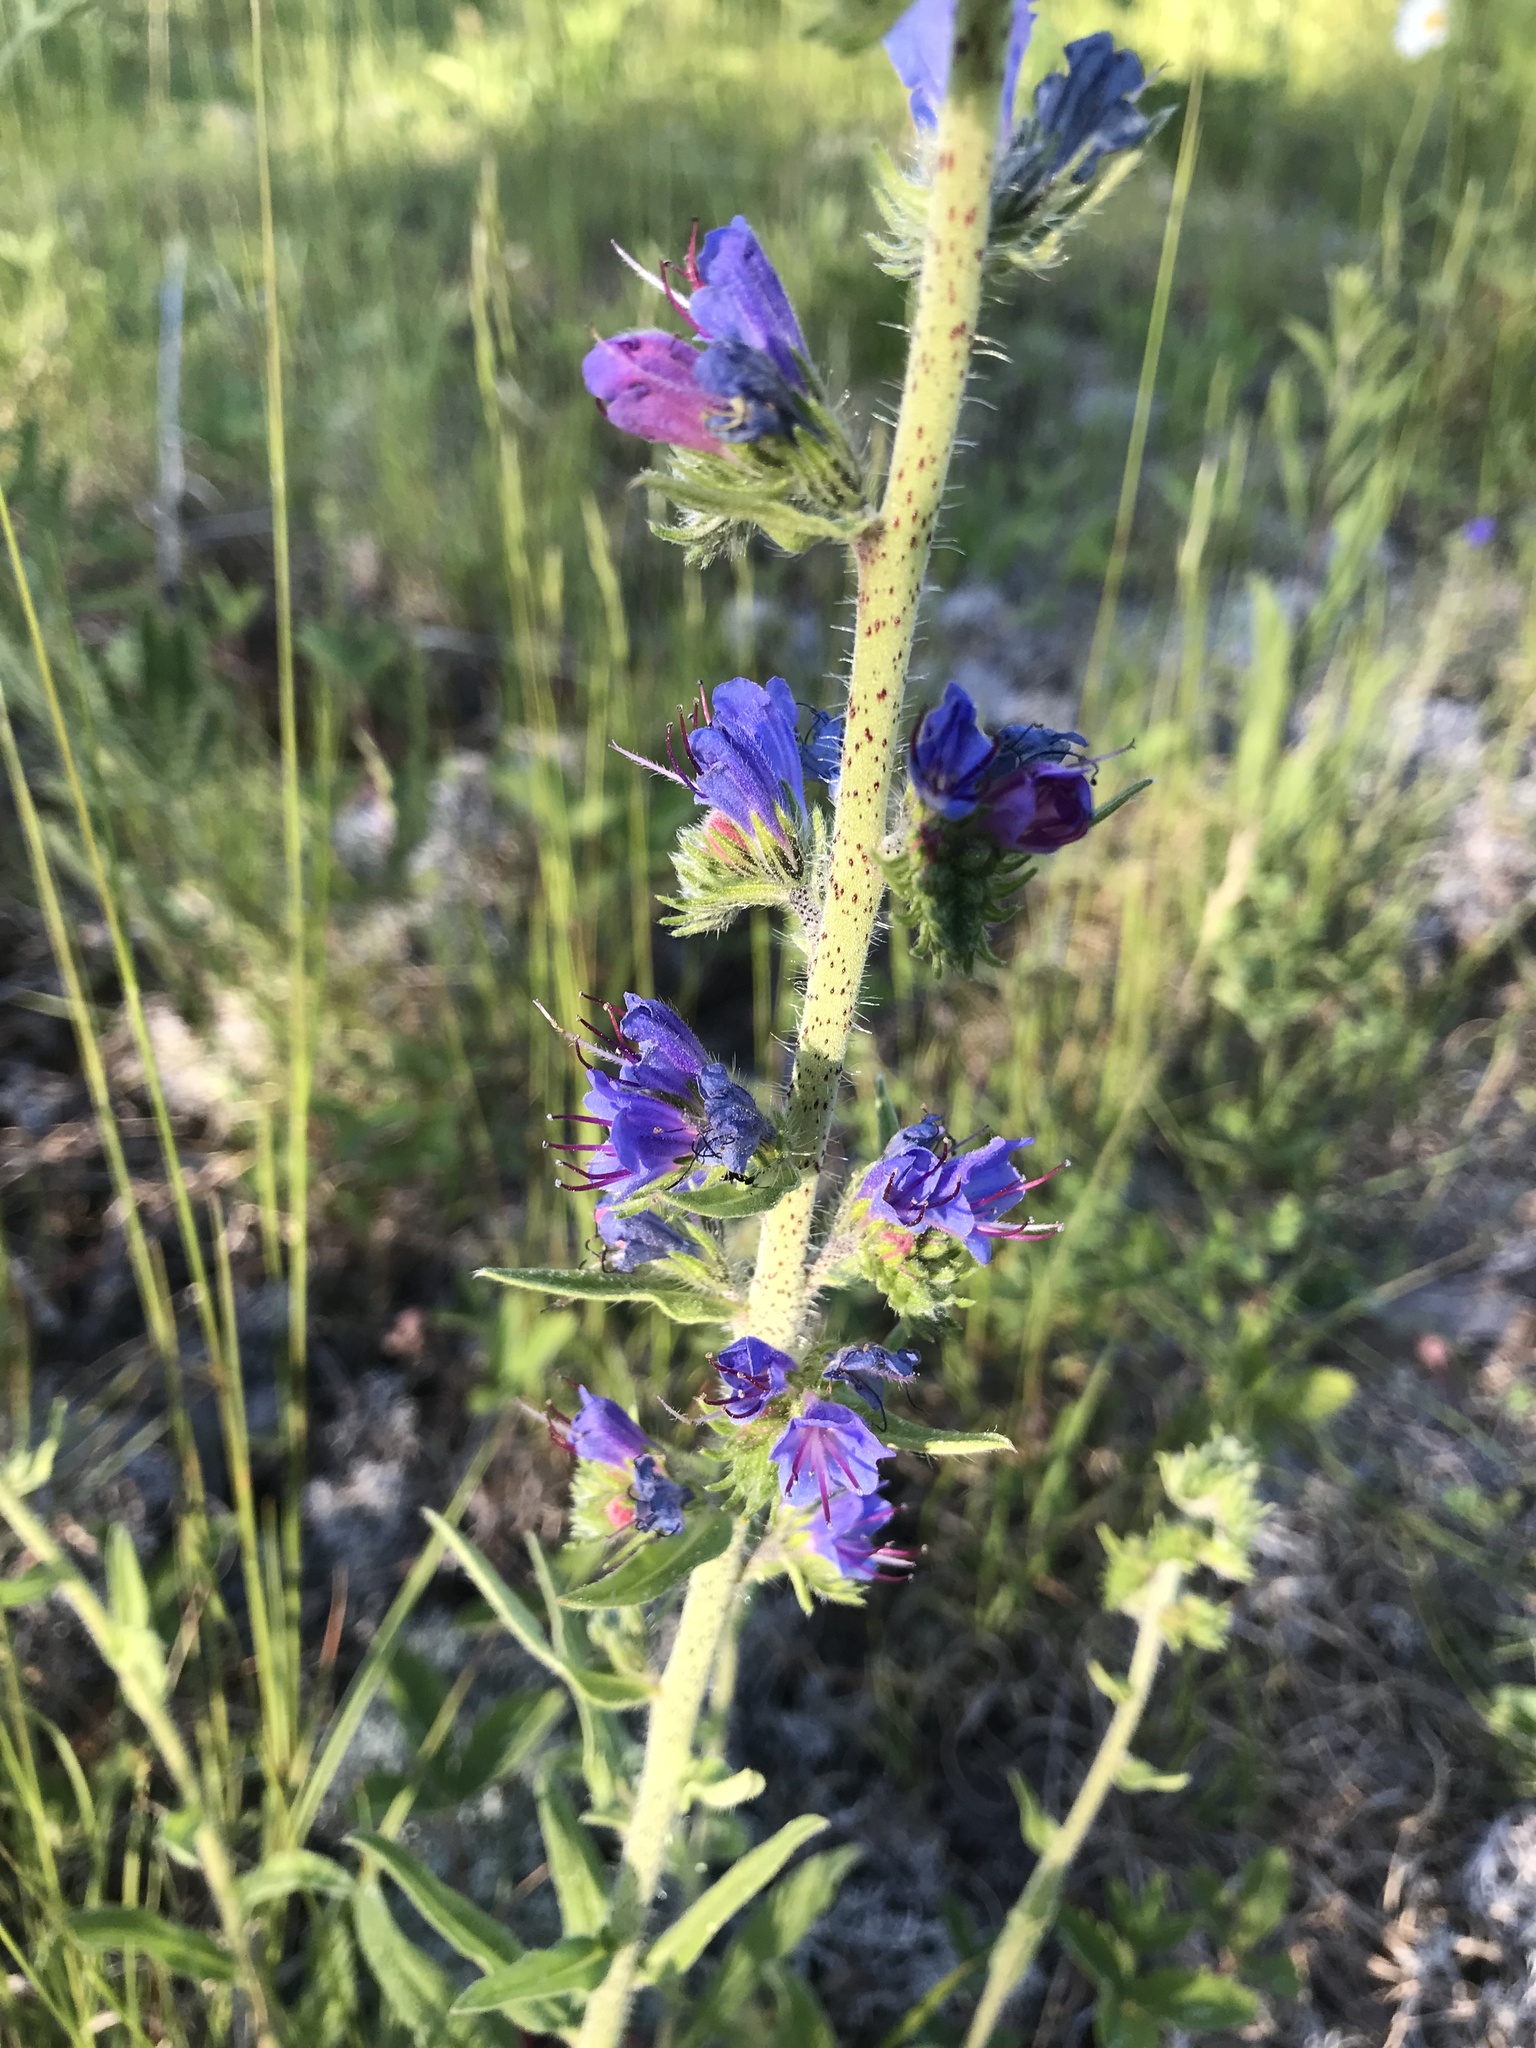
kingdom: Plantae
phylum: Tracheophyta
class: Magnoliopsida
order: Boraginales
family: Boraginaceae
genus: Echium
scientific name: Echium vulgare
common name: Common viper's bugloss
